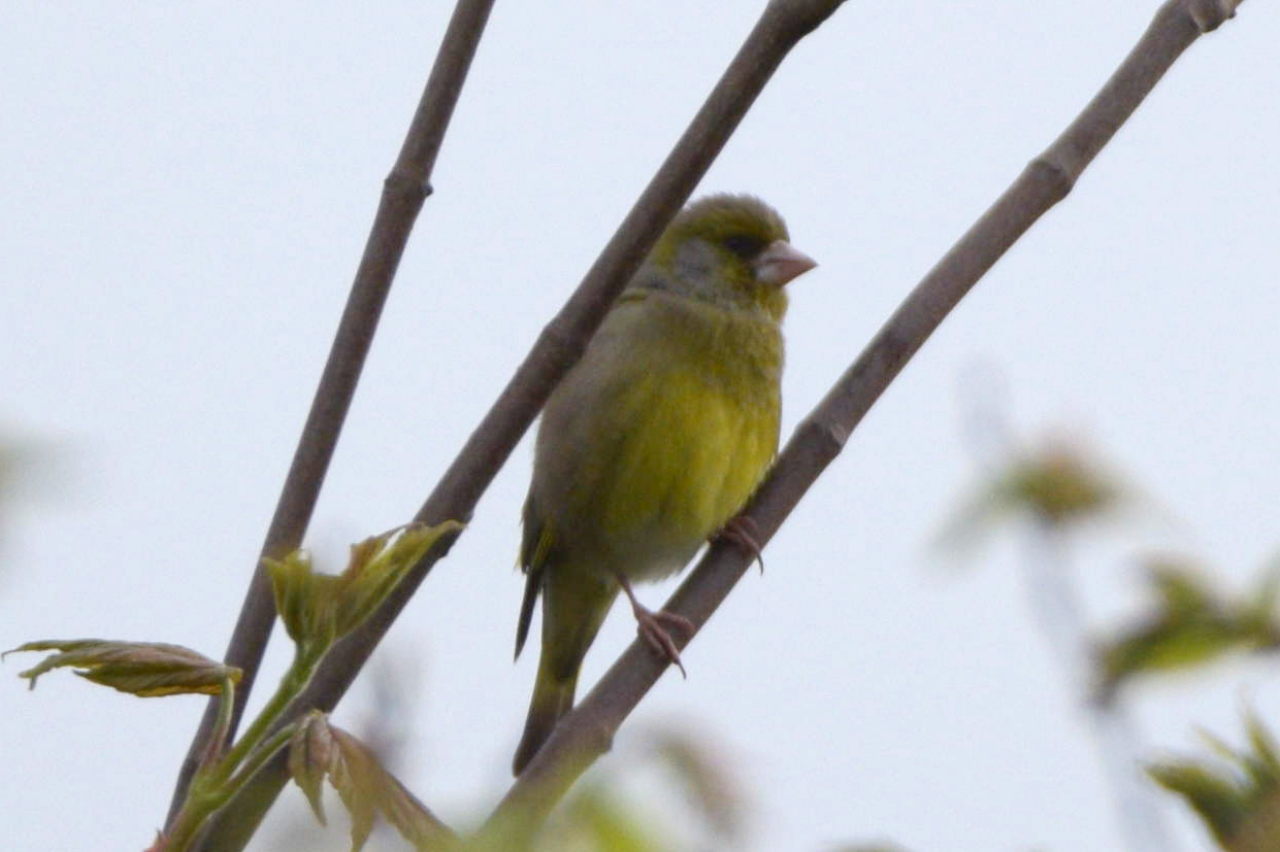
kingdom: Plantae
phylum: Tracheophyta
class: Liliopsida
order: Poales
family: Poaceae
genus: Chloris
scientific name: Chloris chloris
